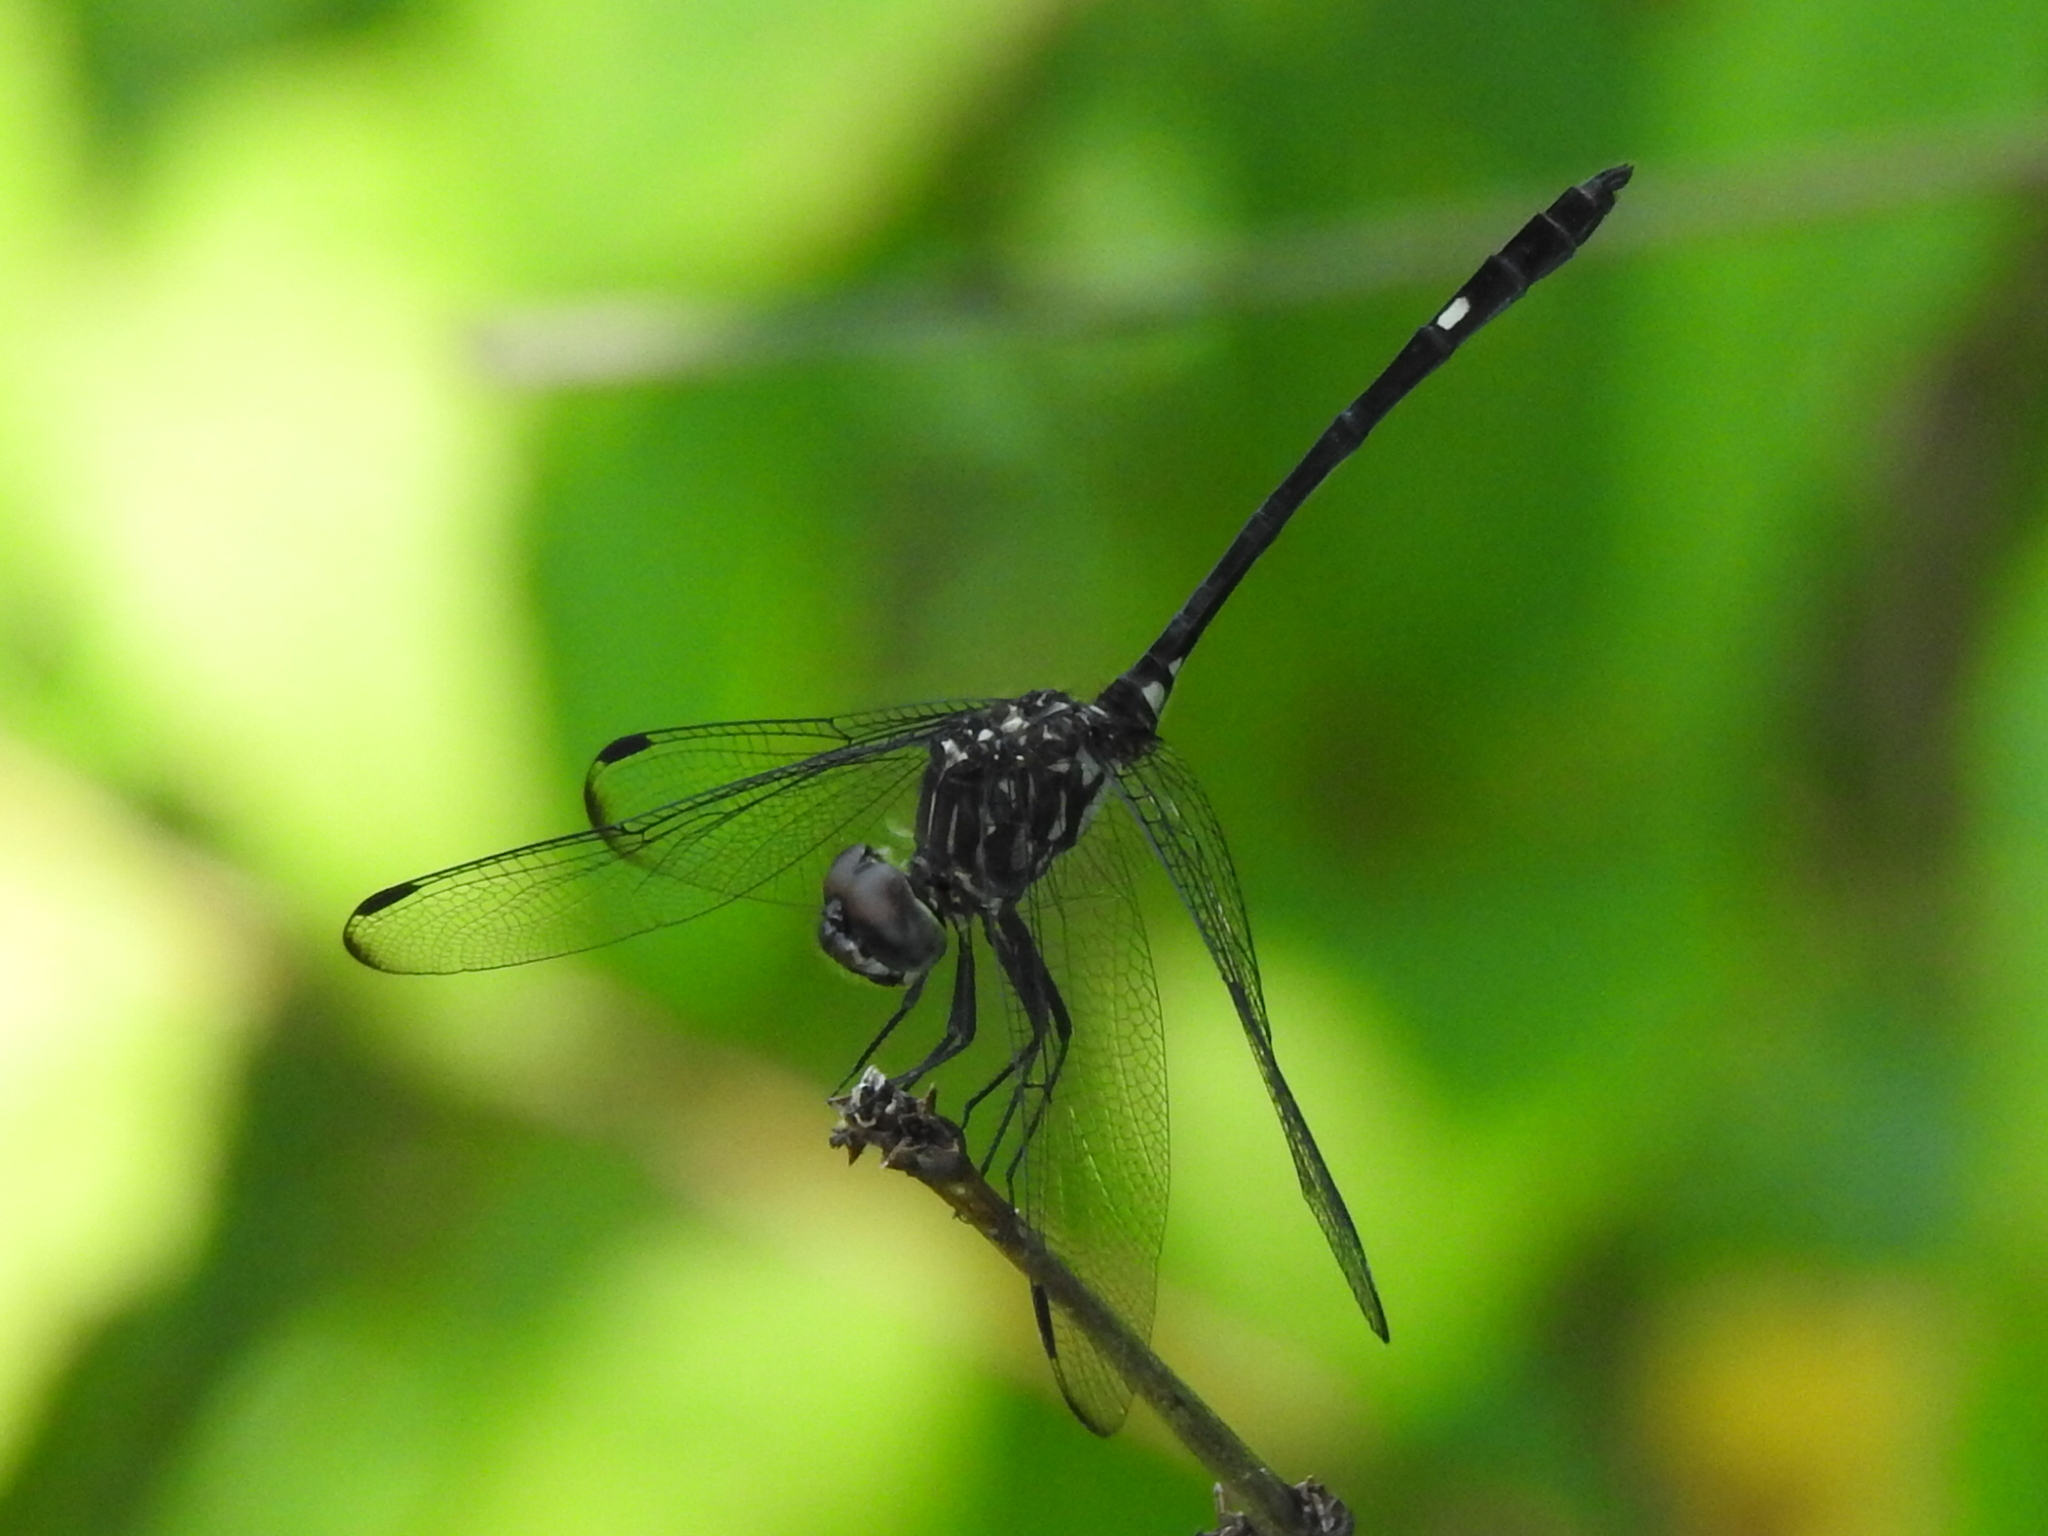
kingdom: Animalia
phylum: Arthropoda
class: Insecta
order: Odonata
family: Libellulidae
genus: Dythemis
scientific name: Dythemis velox
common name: Swift setwing
